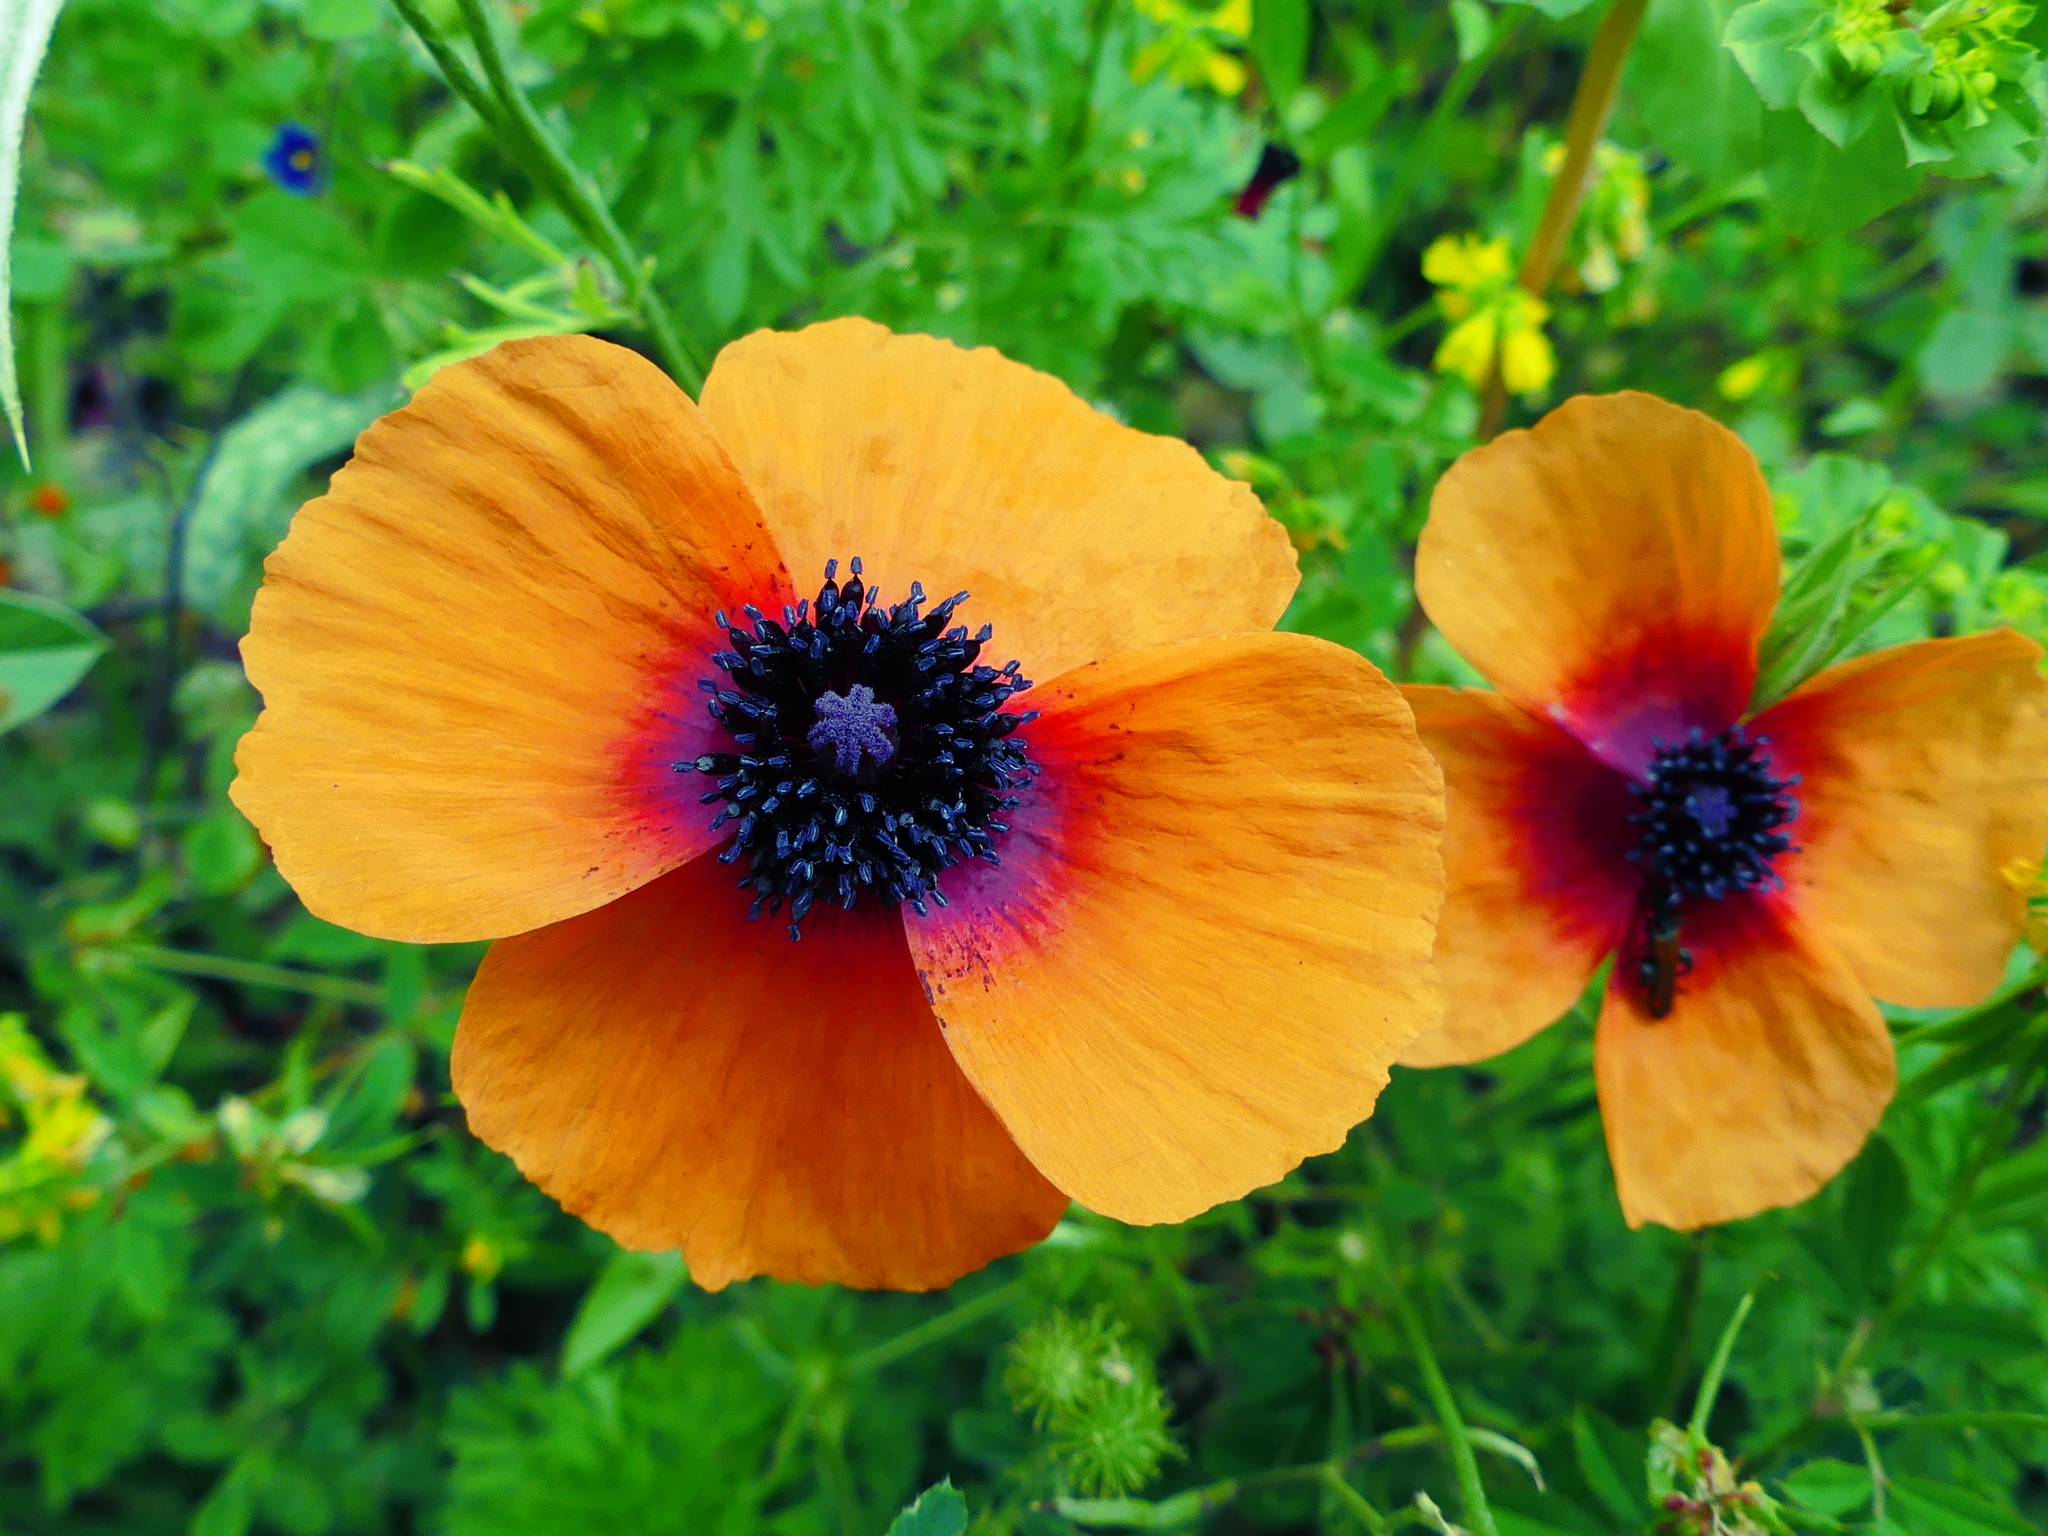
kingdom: Plantae
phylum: Tracheophyta
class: Magnoliopsida
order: Ranunculales
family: Papaveraceae
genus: Roemeria
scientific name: Roemeria apula
